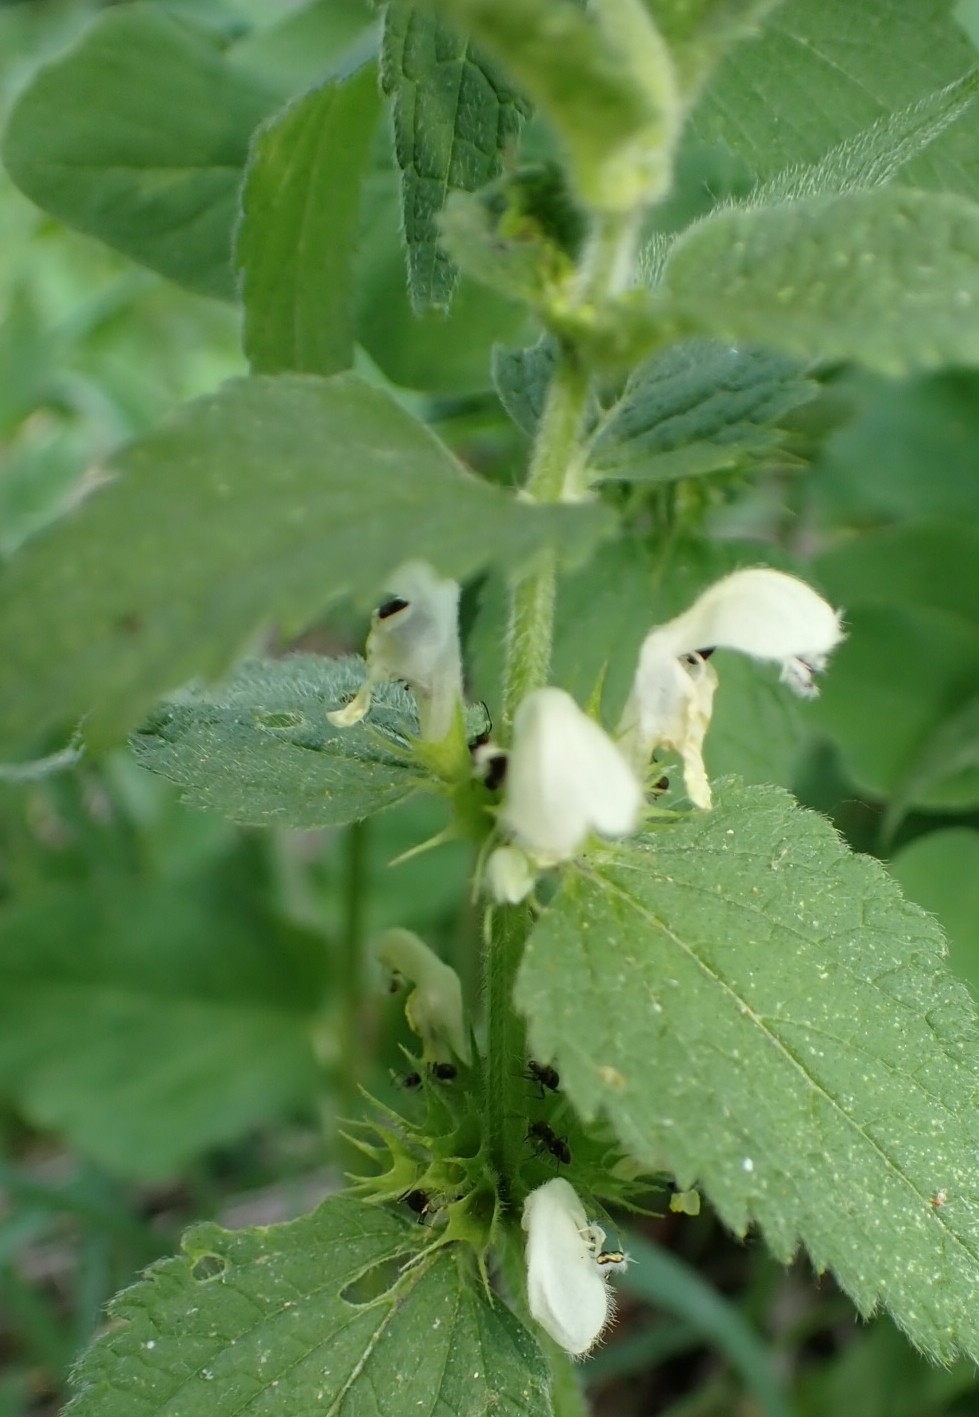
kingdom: Plantae
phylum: Tracheophyta
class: Magnoliopsida
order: Lamiales
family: Lamiaceae
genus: Lamium
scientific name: Lamium album
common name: White dead-nettle
